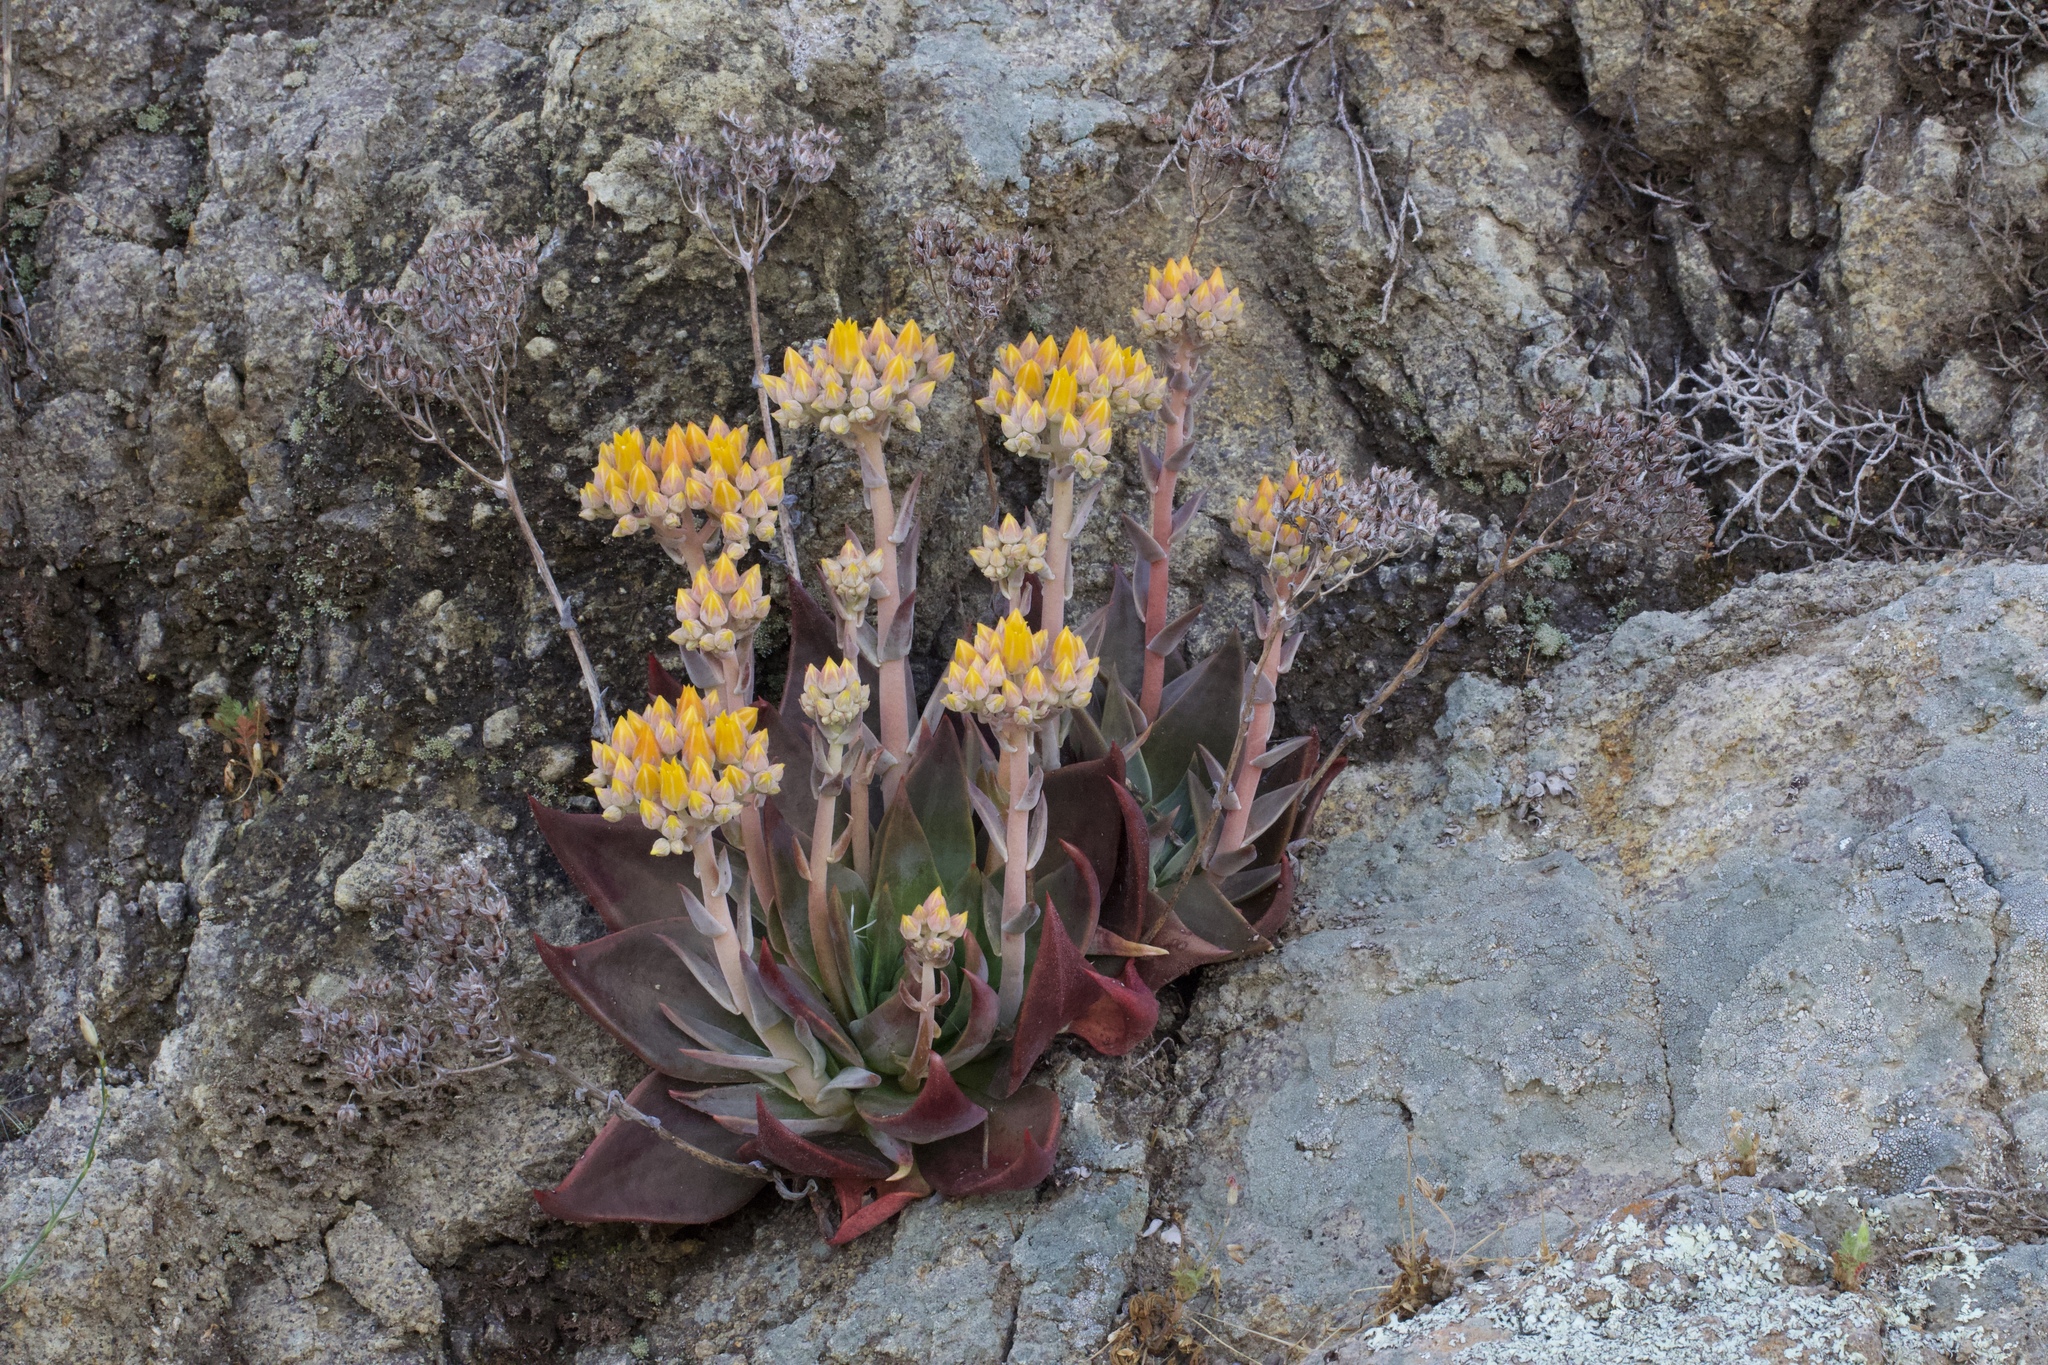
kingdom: Plantae
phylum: Tracheophyta
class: Magnoliopsida
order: Saxifragales
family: Crassulaceae
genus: Dudleya
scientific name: Dudleya cymosa
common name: Canyon dudleya
